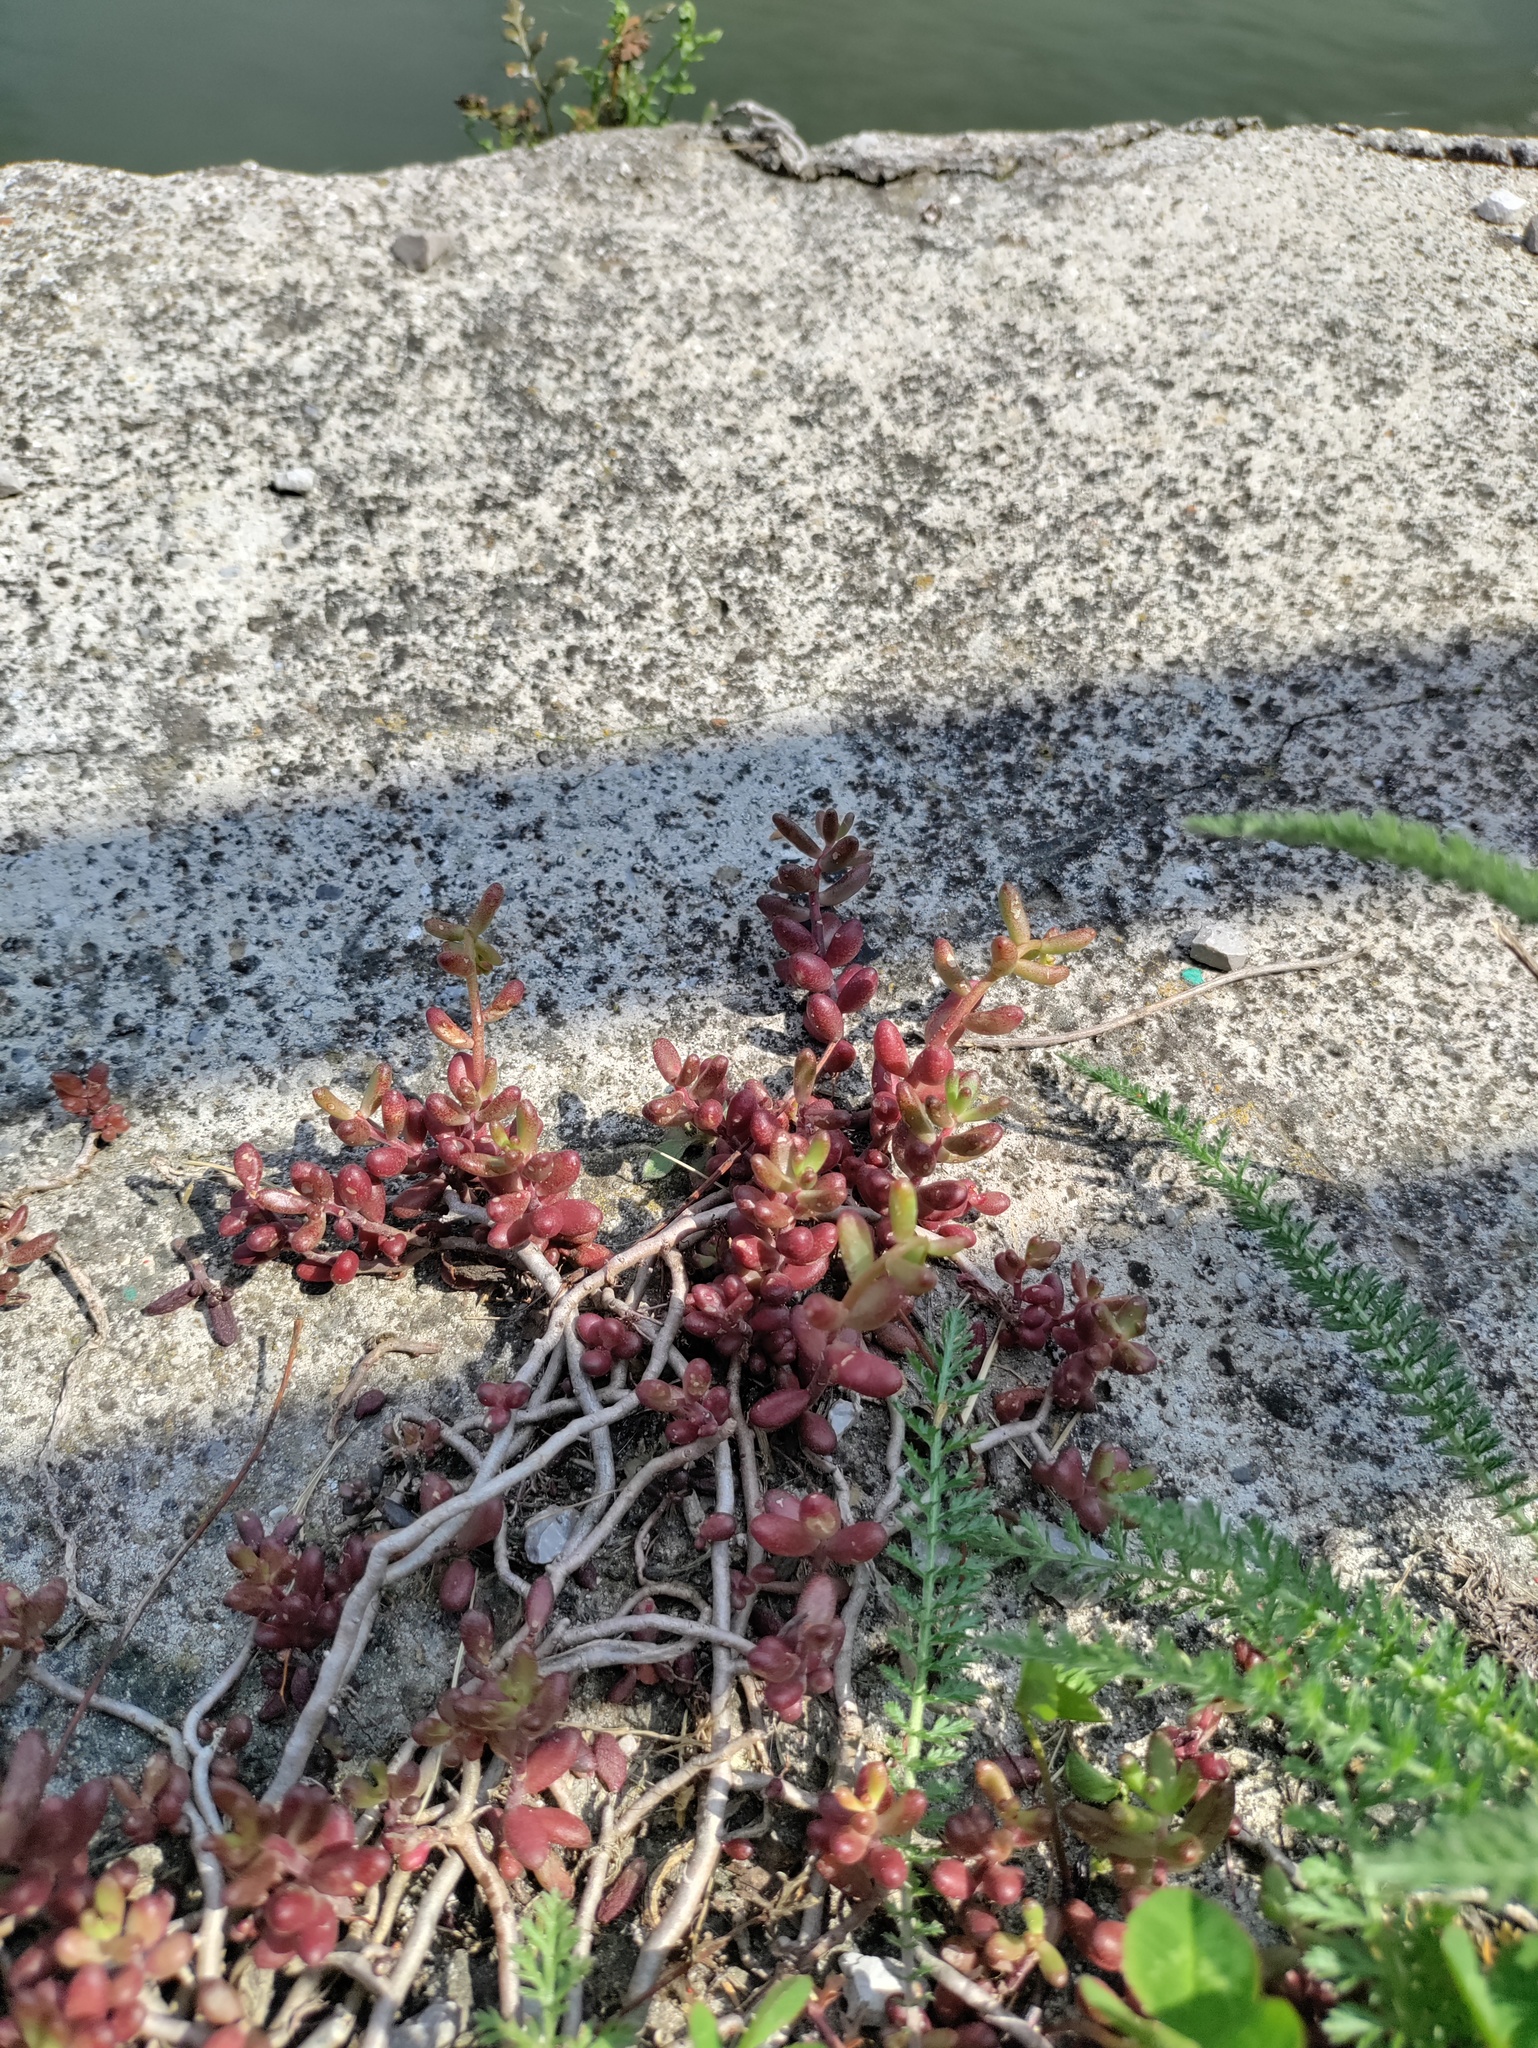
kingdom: Plantae
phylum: Tracheophyta
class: Magnoliopsida
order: Saxifragales
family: Crassulaceae
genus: Sedum
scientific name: Sedum album
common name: White stonecrop
